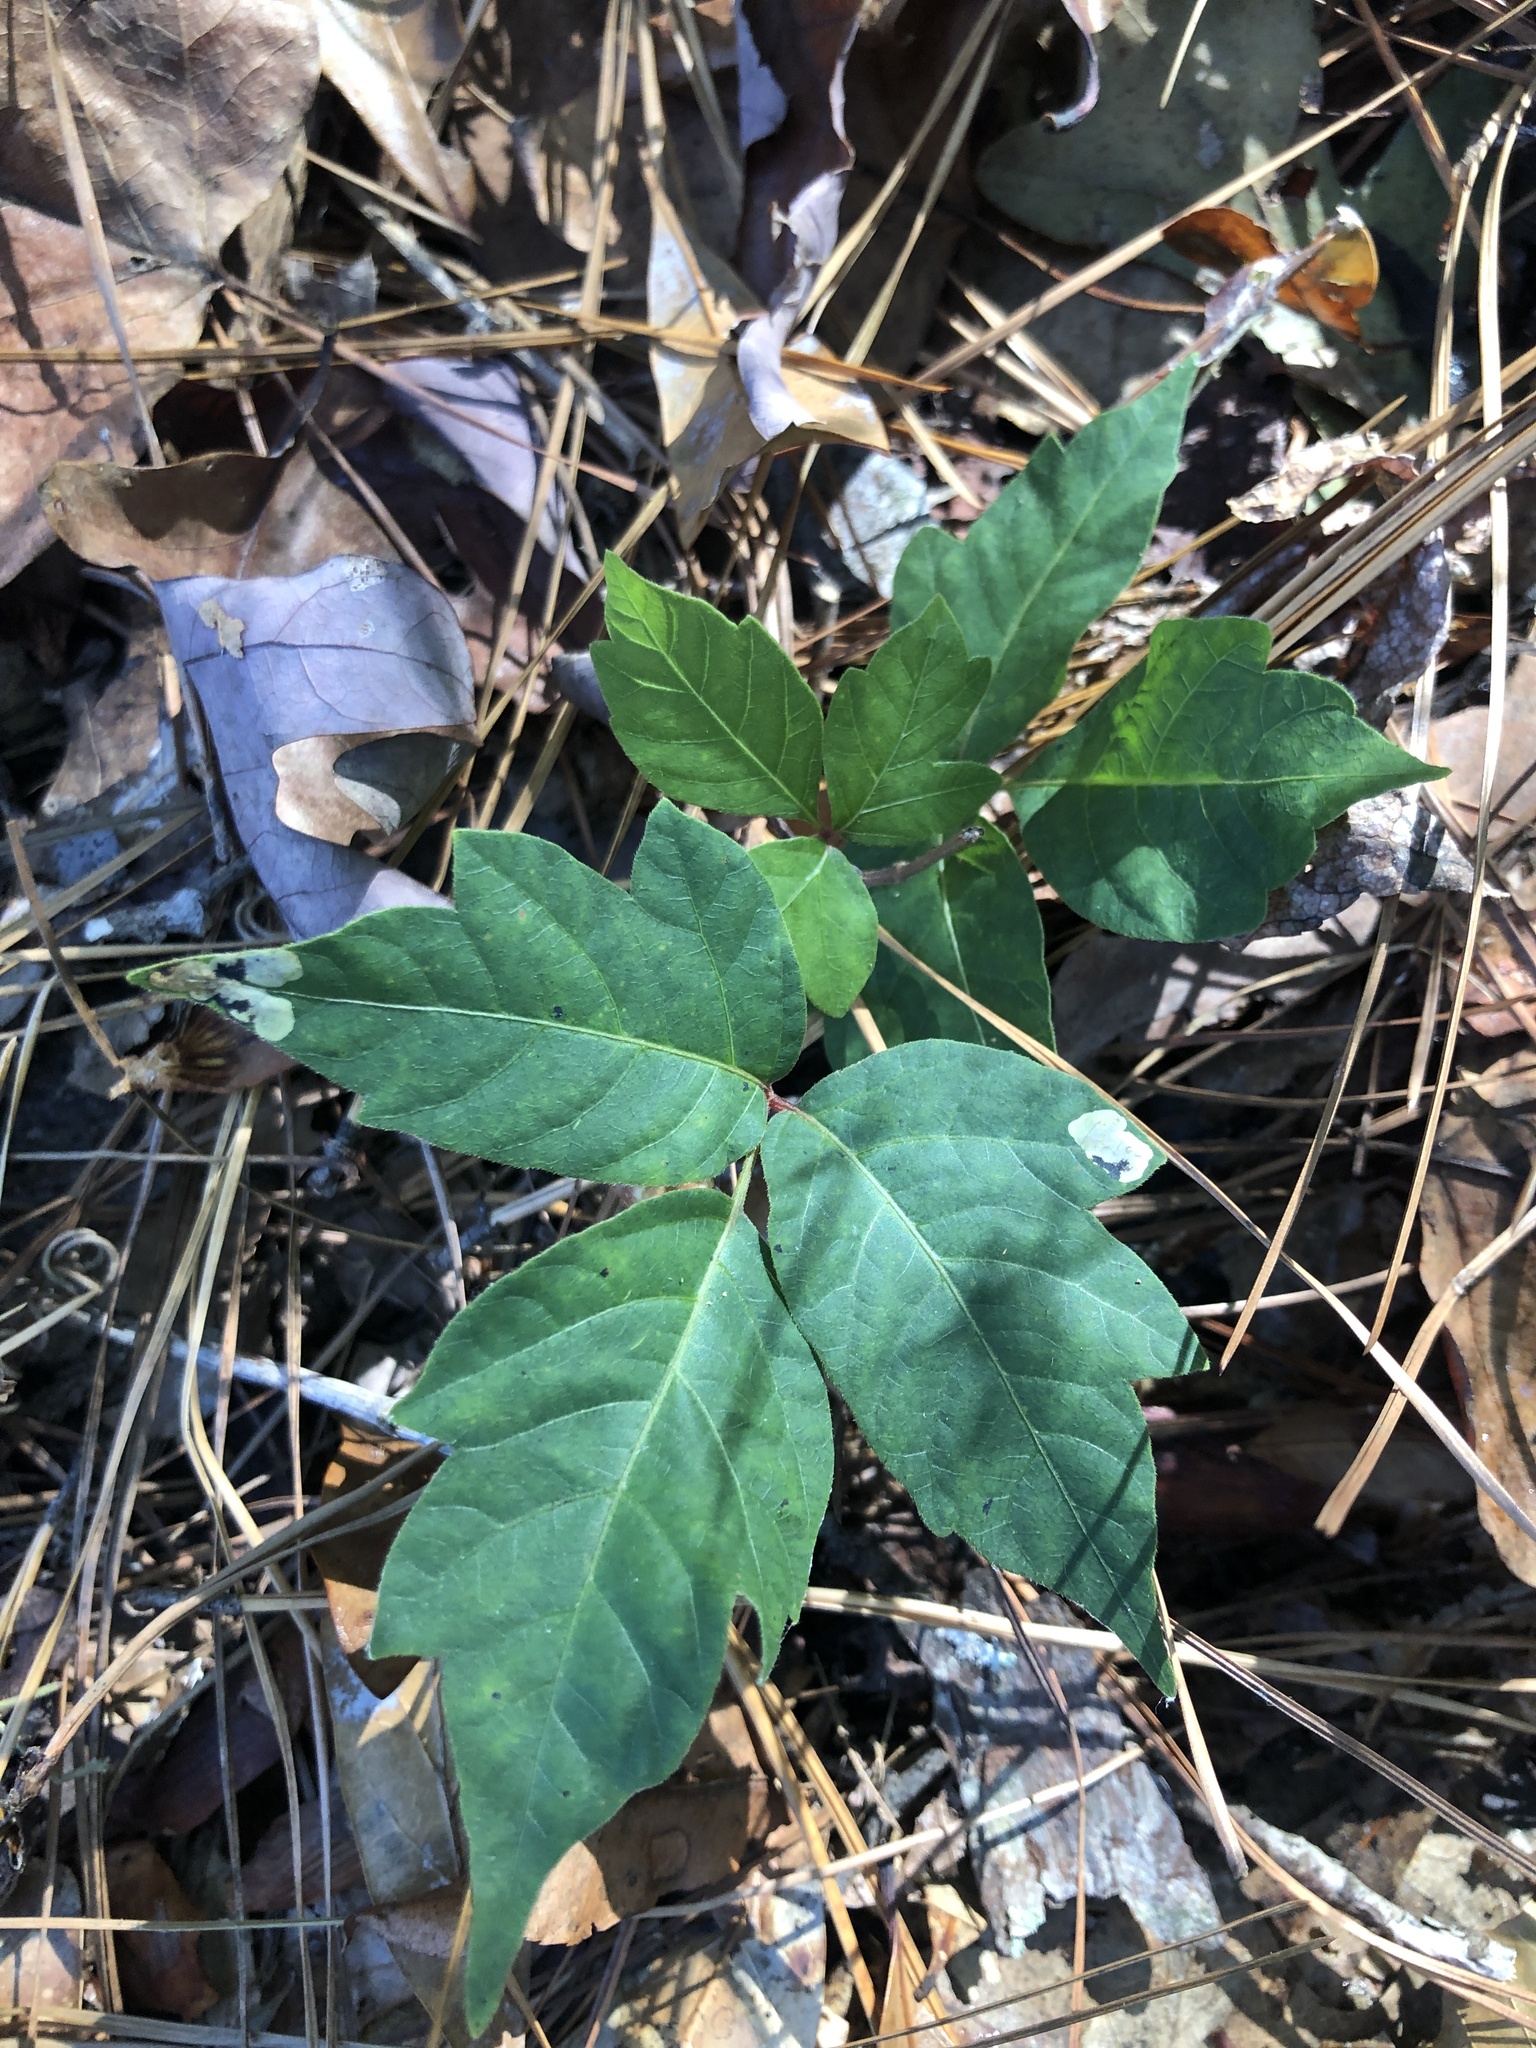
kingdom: Plantae
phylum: Tracheophyta
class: Magnoliopsida
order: Sapindales
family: Anacardiaceae
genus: Toxicodendron
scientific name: Toxicodendron radicans
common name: Poison ivy
